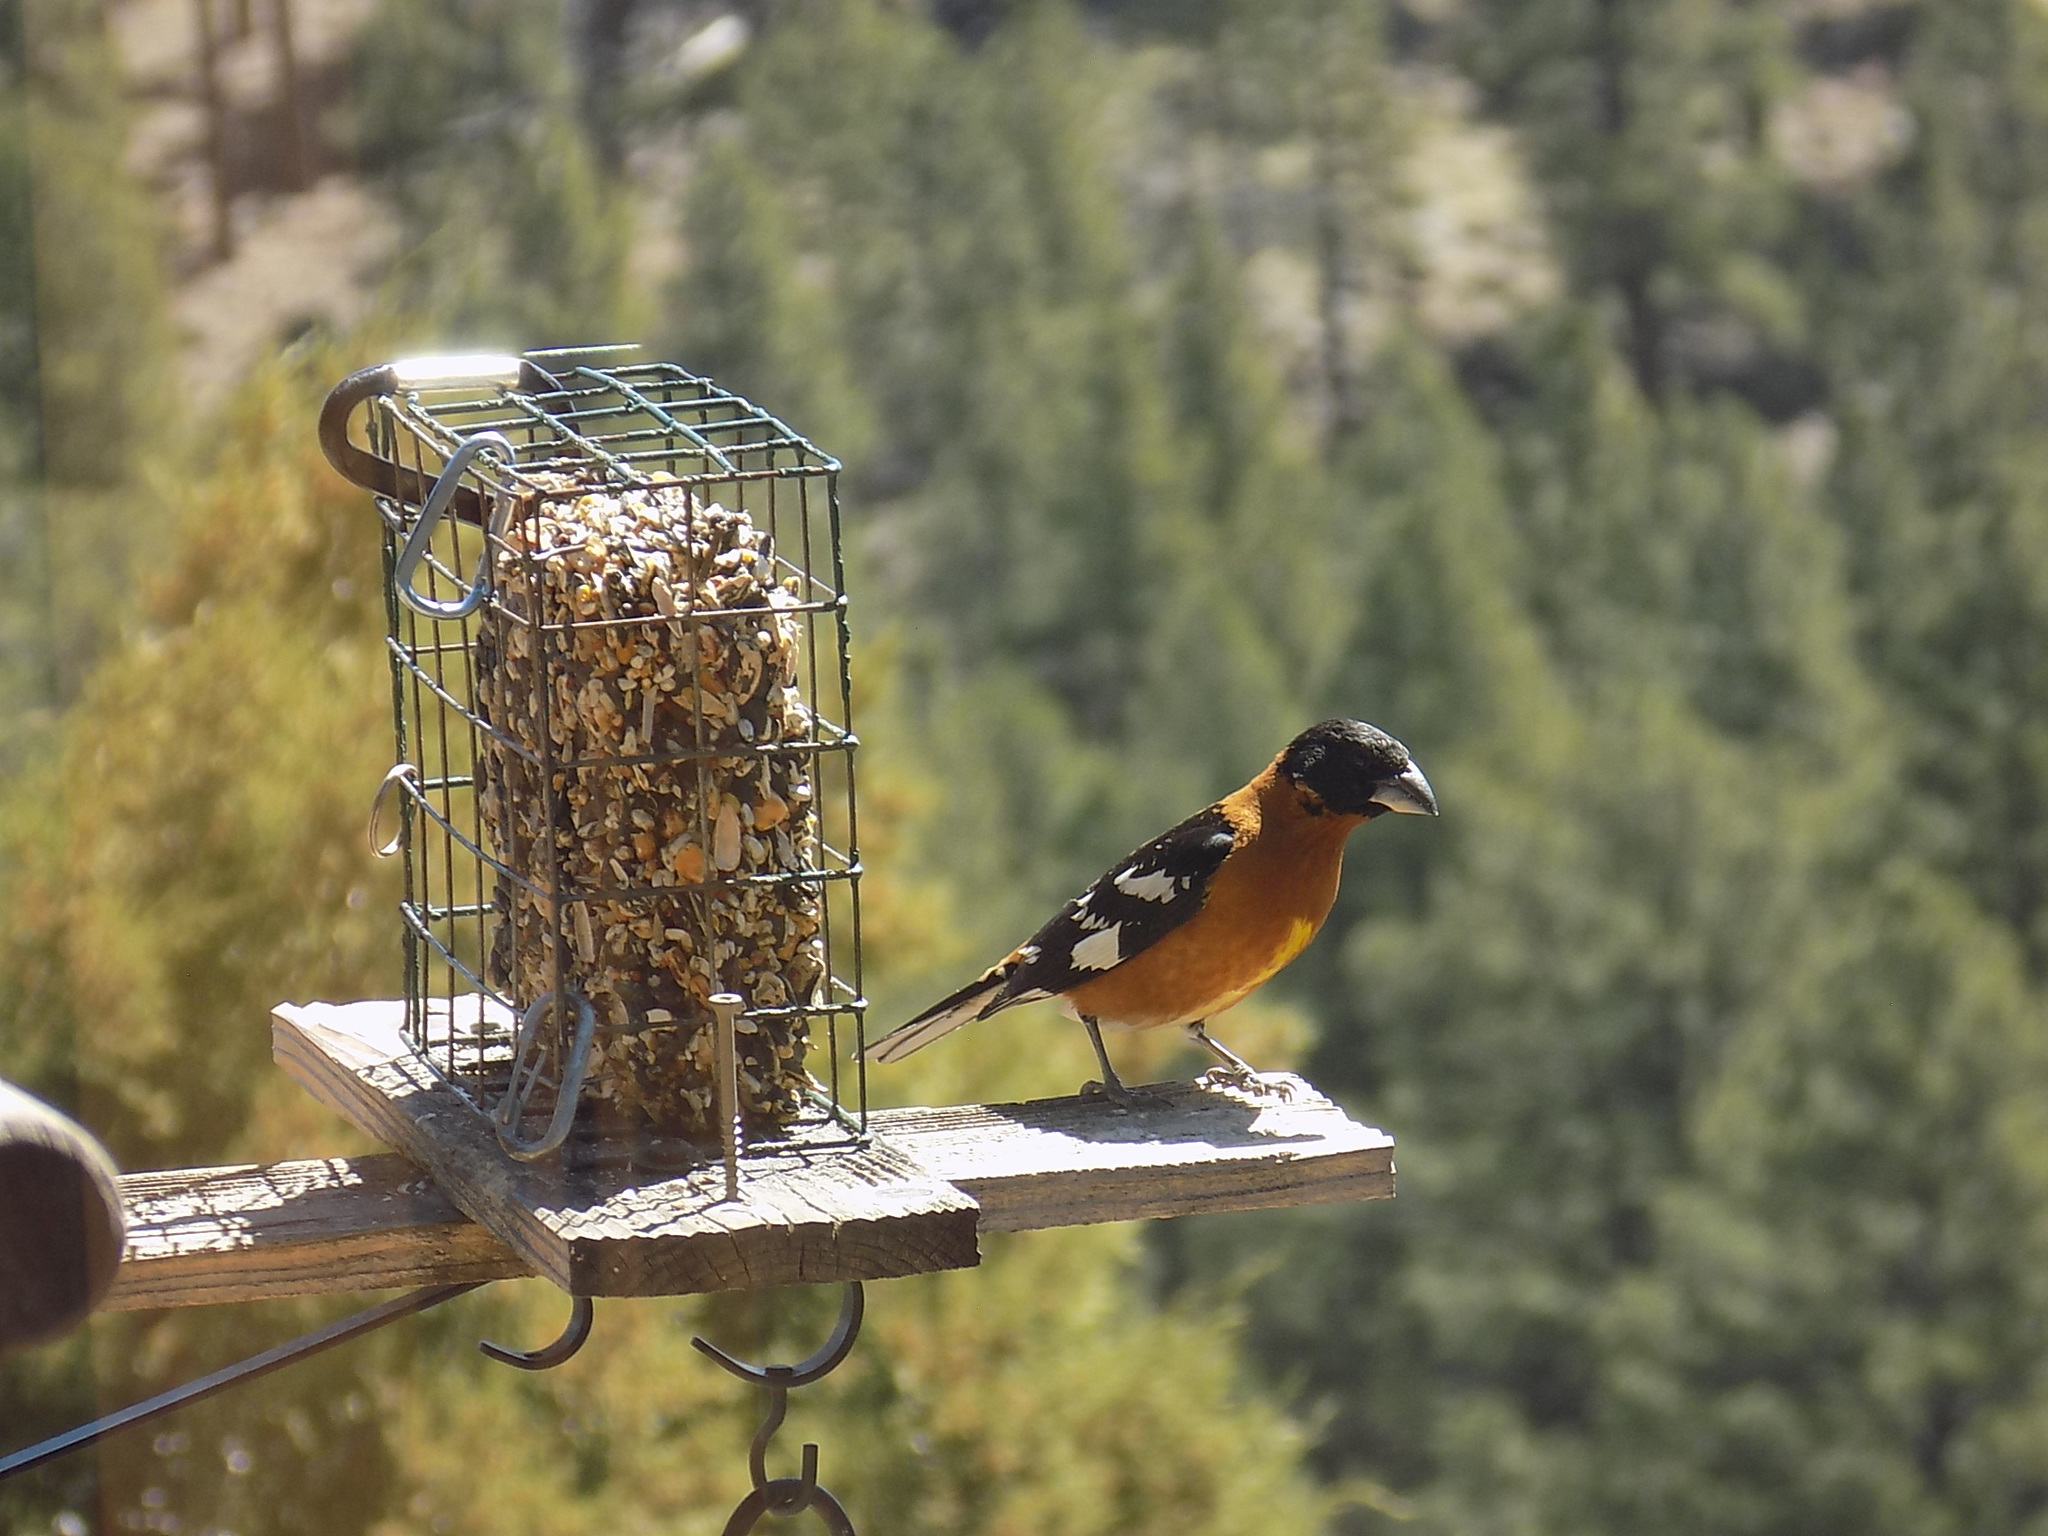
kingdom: Animalia
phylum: Chordata
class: Aves
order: Passeriformes
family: Cardinalidae
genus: Pheucticus
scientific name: Pheucticus melanocephalus
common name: Black-headed grosbeak
